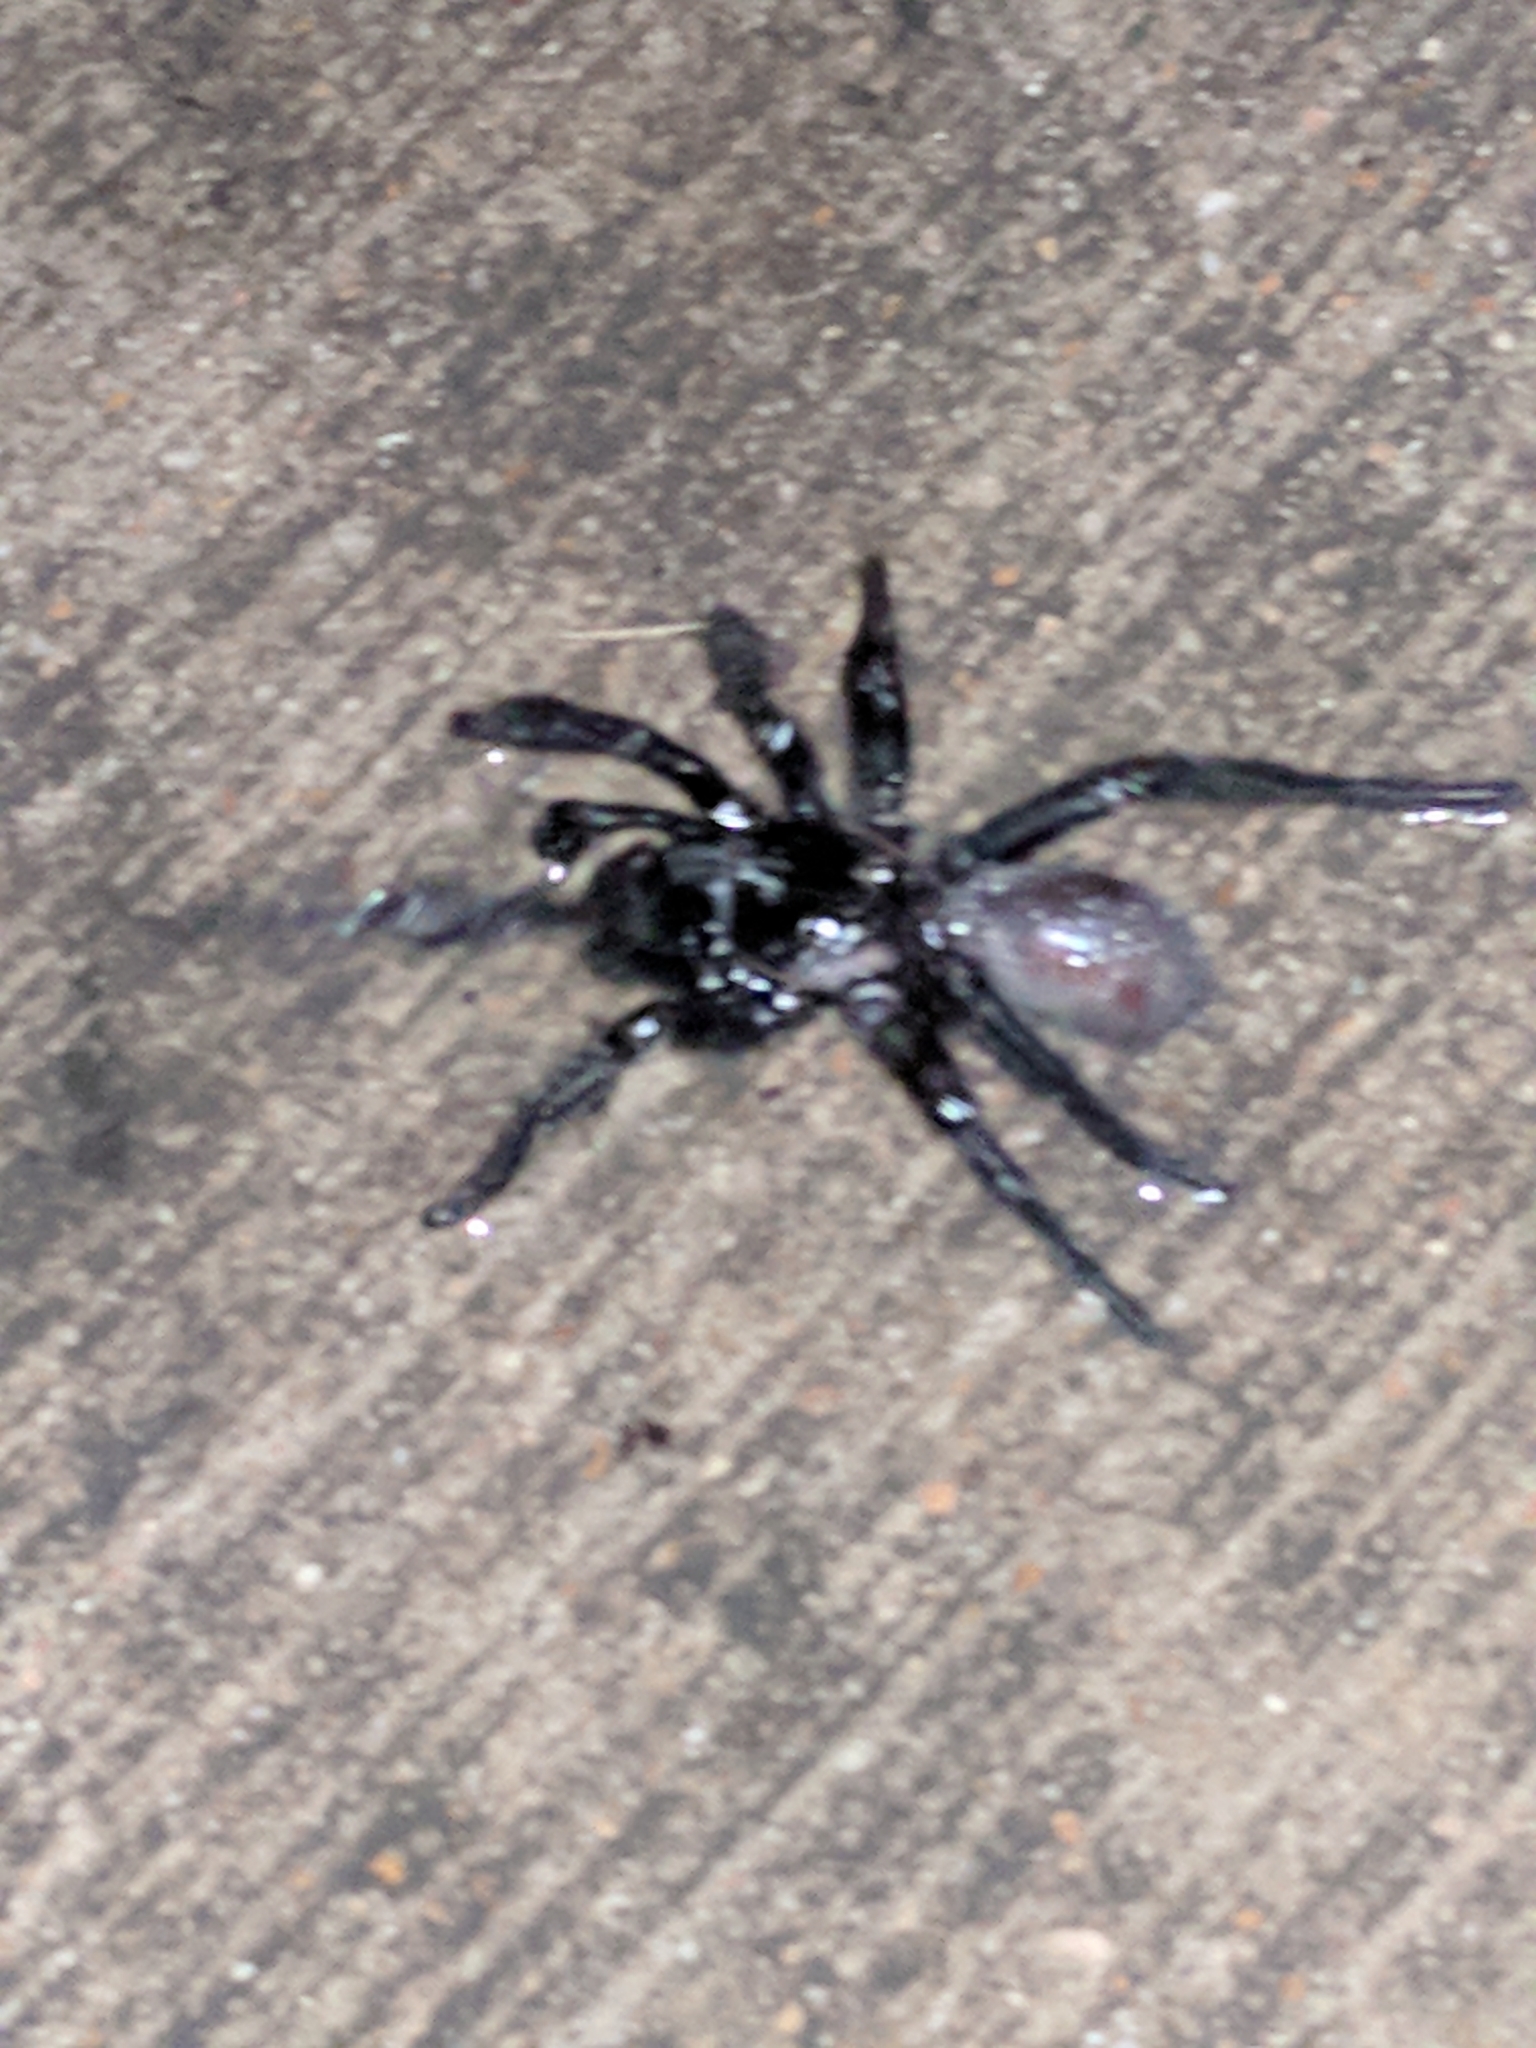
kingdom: Animalia
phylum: Arthropoda
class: Arachnida
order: Araneae
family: Euctenizidae
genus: Eucteniza
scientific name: Eucteniza relata
